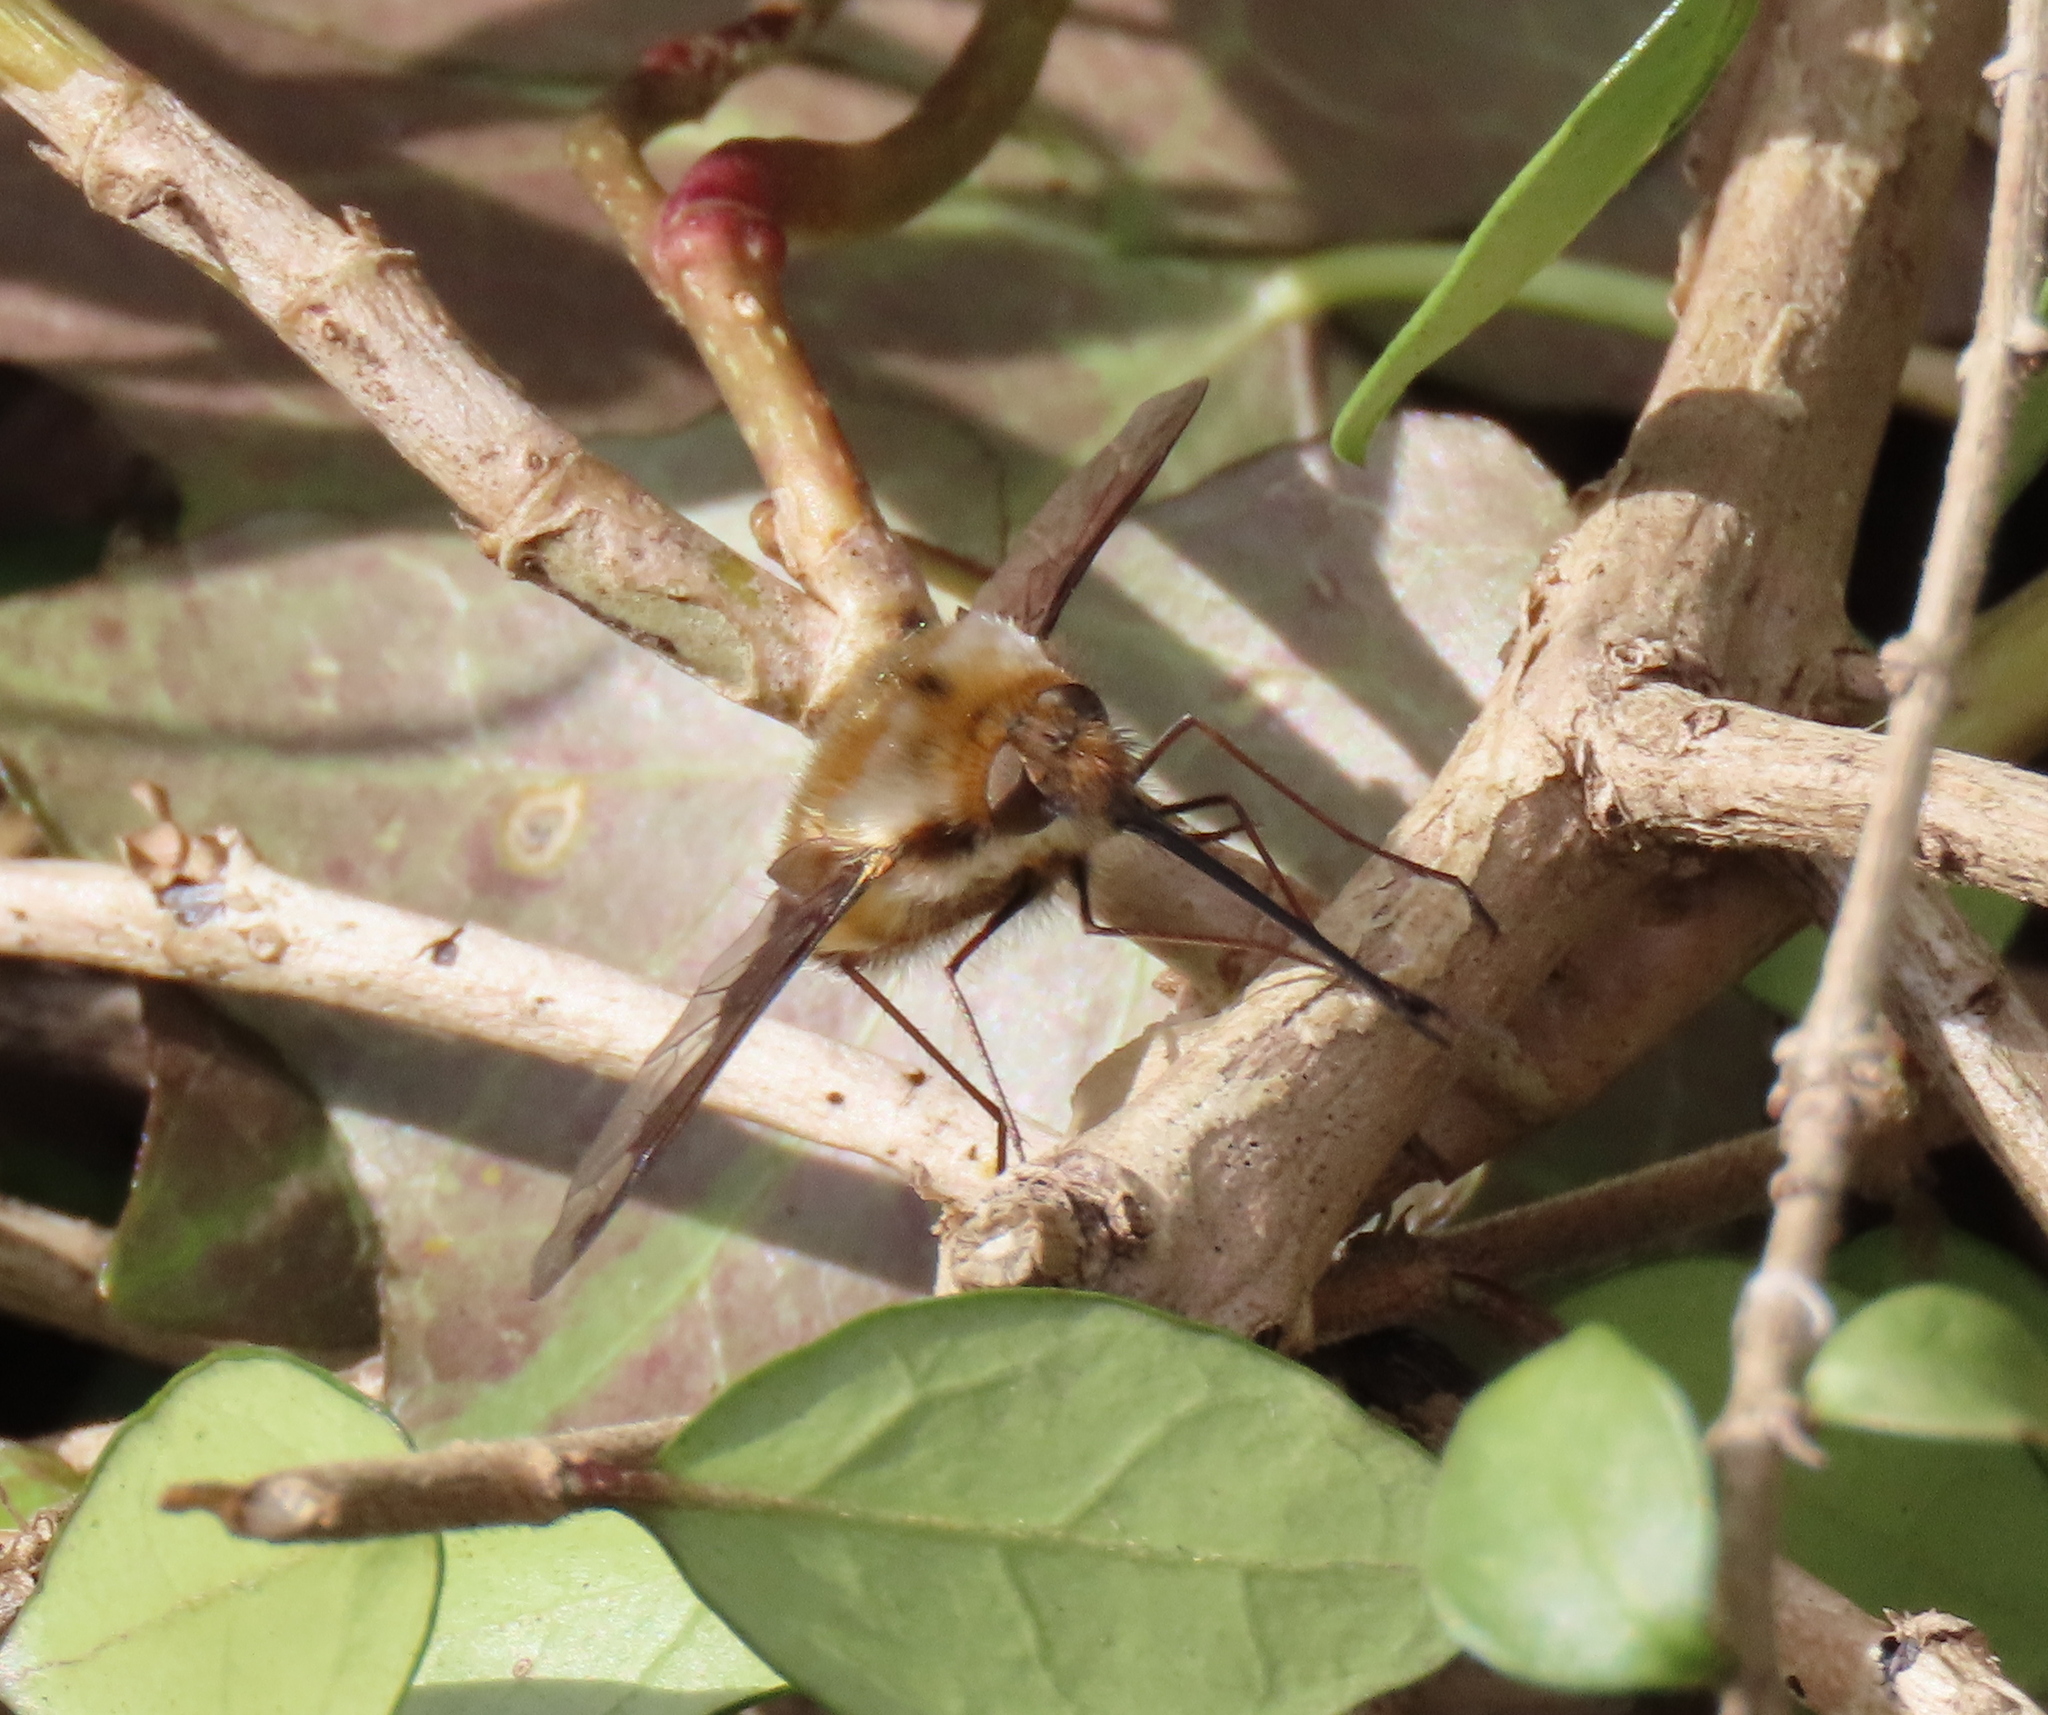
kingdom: Animalia
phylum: Arthropoda
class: Insecta
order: Diptera
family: Bombyliidae
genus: Bombylius
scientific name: Bombylius major
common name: Bee fly
